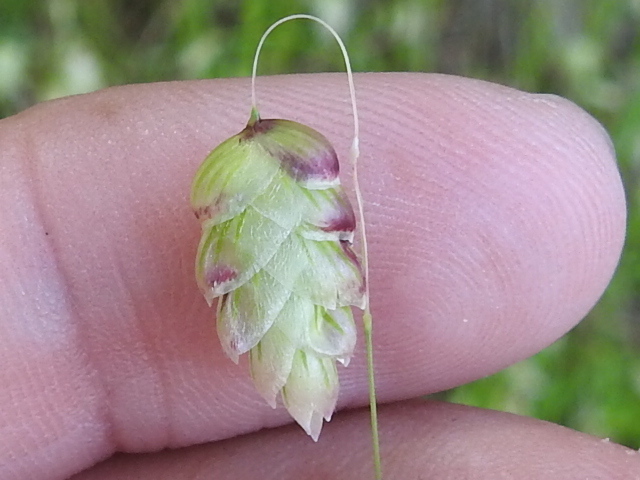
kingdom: Plantae
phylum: Tracheophyta
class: Liliopsida
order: Poales
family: Poaceae
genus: Briza
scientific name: Briza maxima
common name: Big quakinggrass
